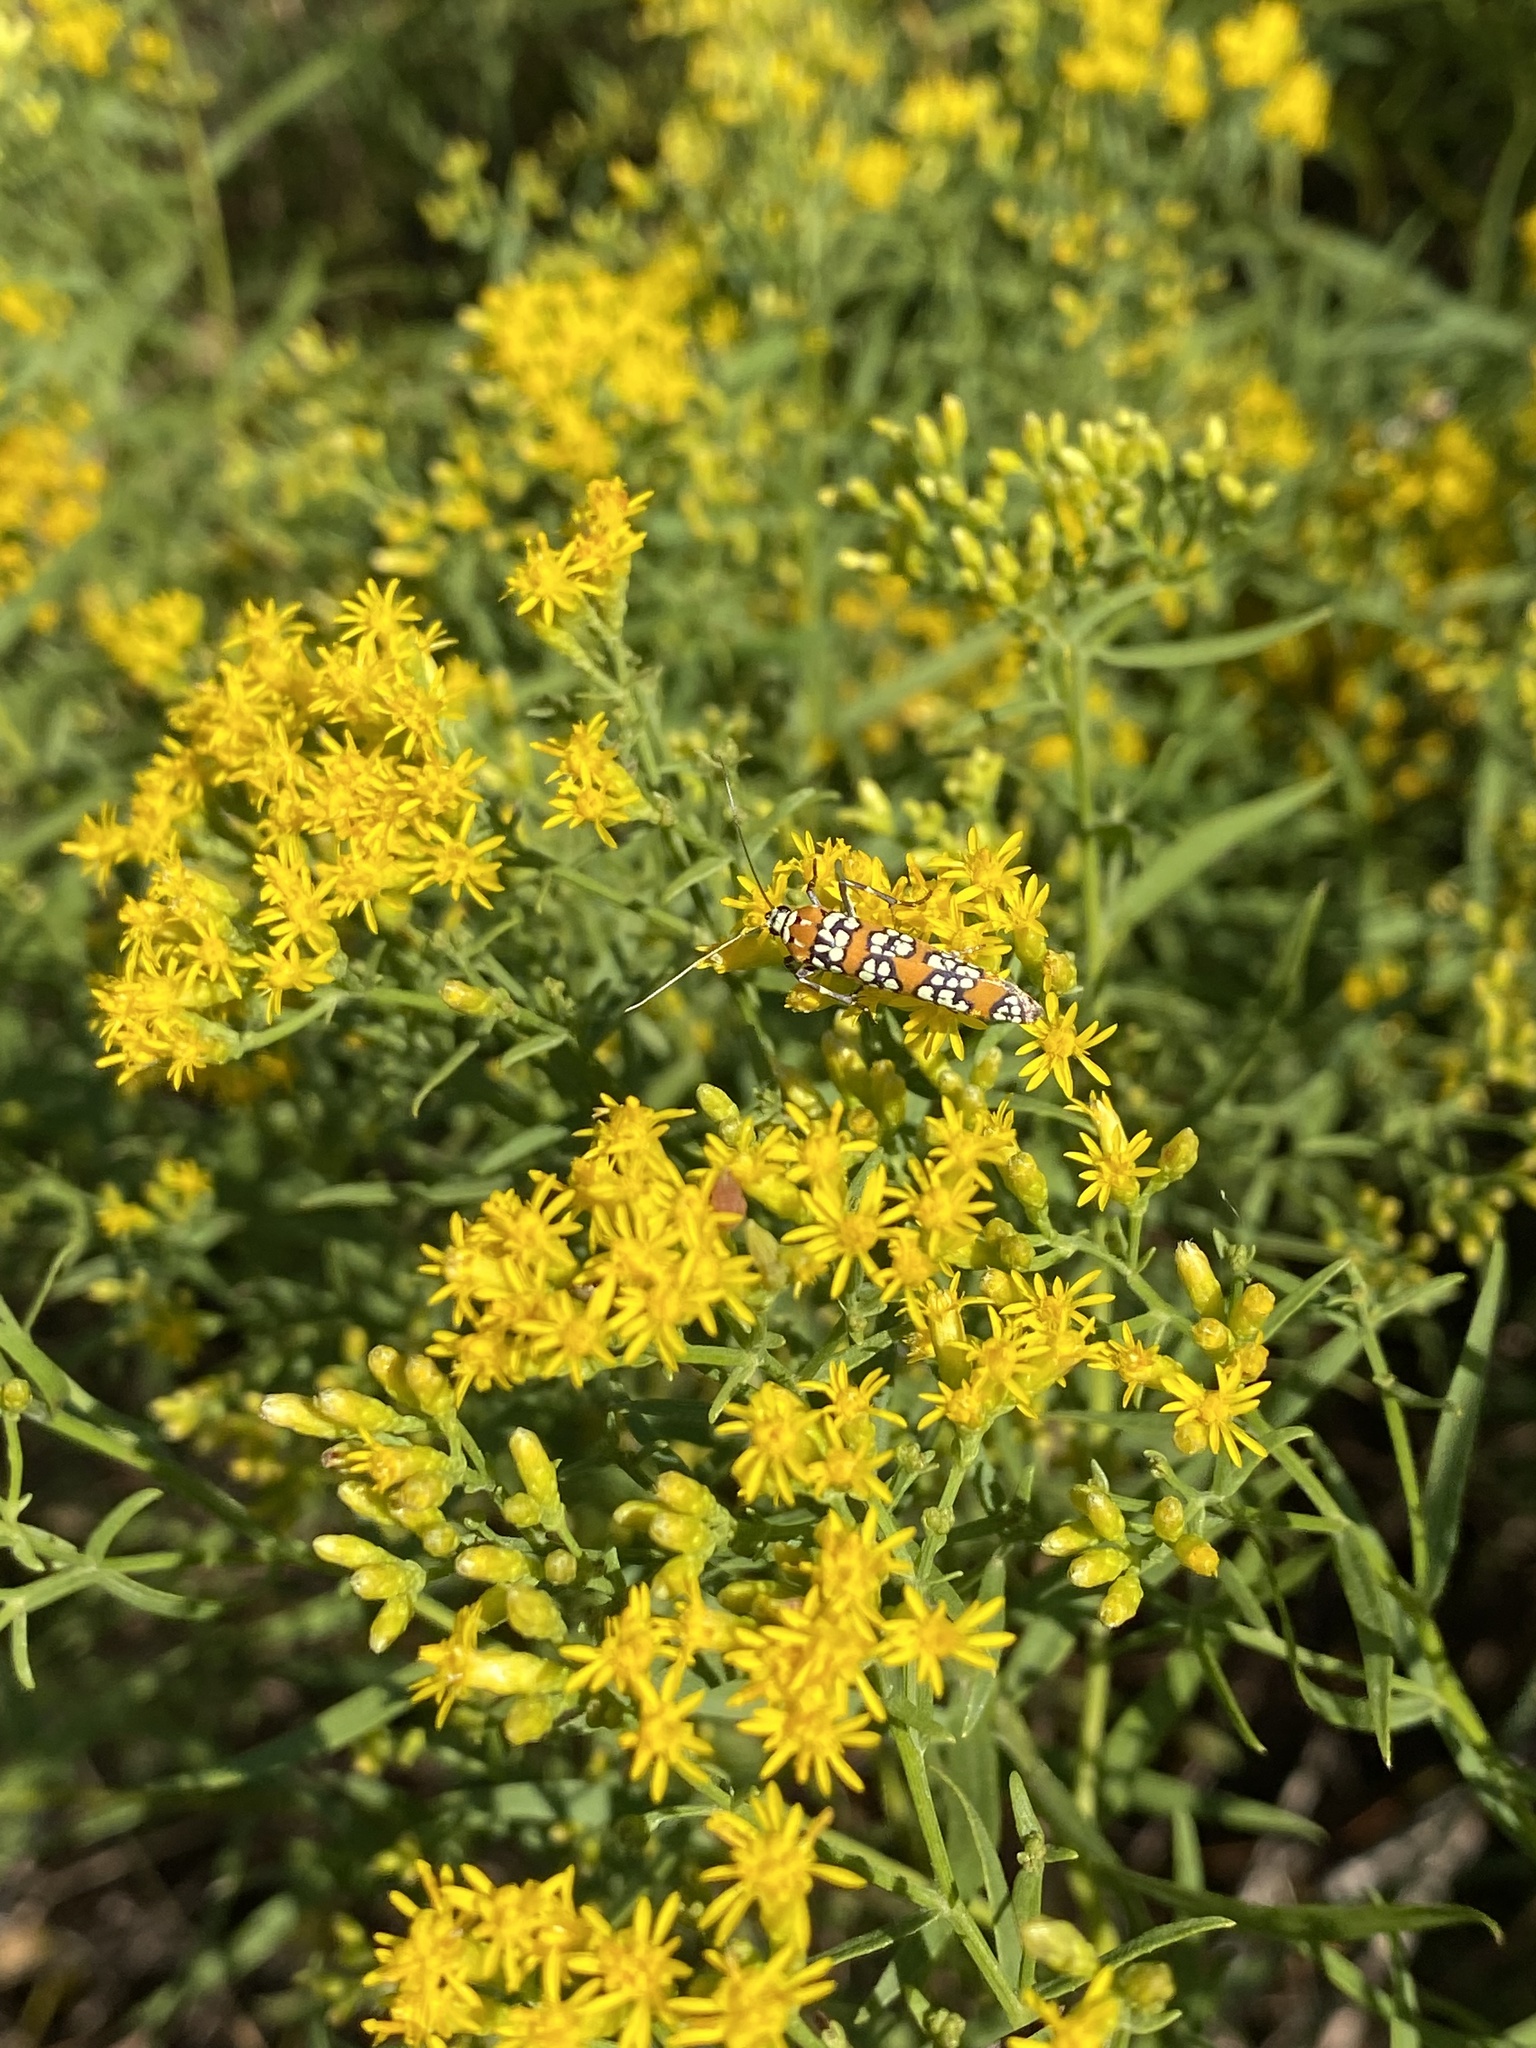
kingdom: Animalia
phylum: Arthropoda
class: Insecta
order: Lepidoptera
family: Attevidae
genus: Atteva
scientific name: Atteva punctella
